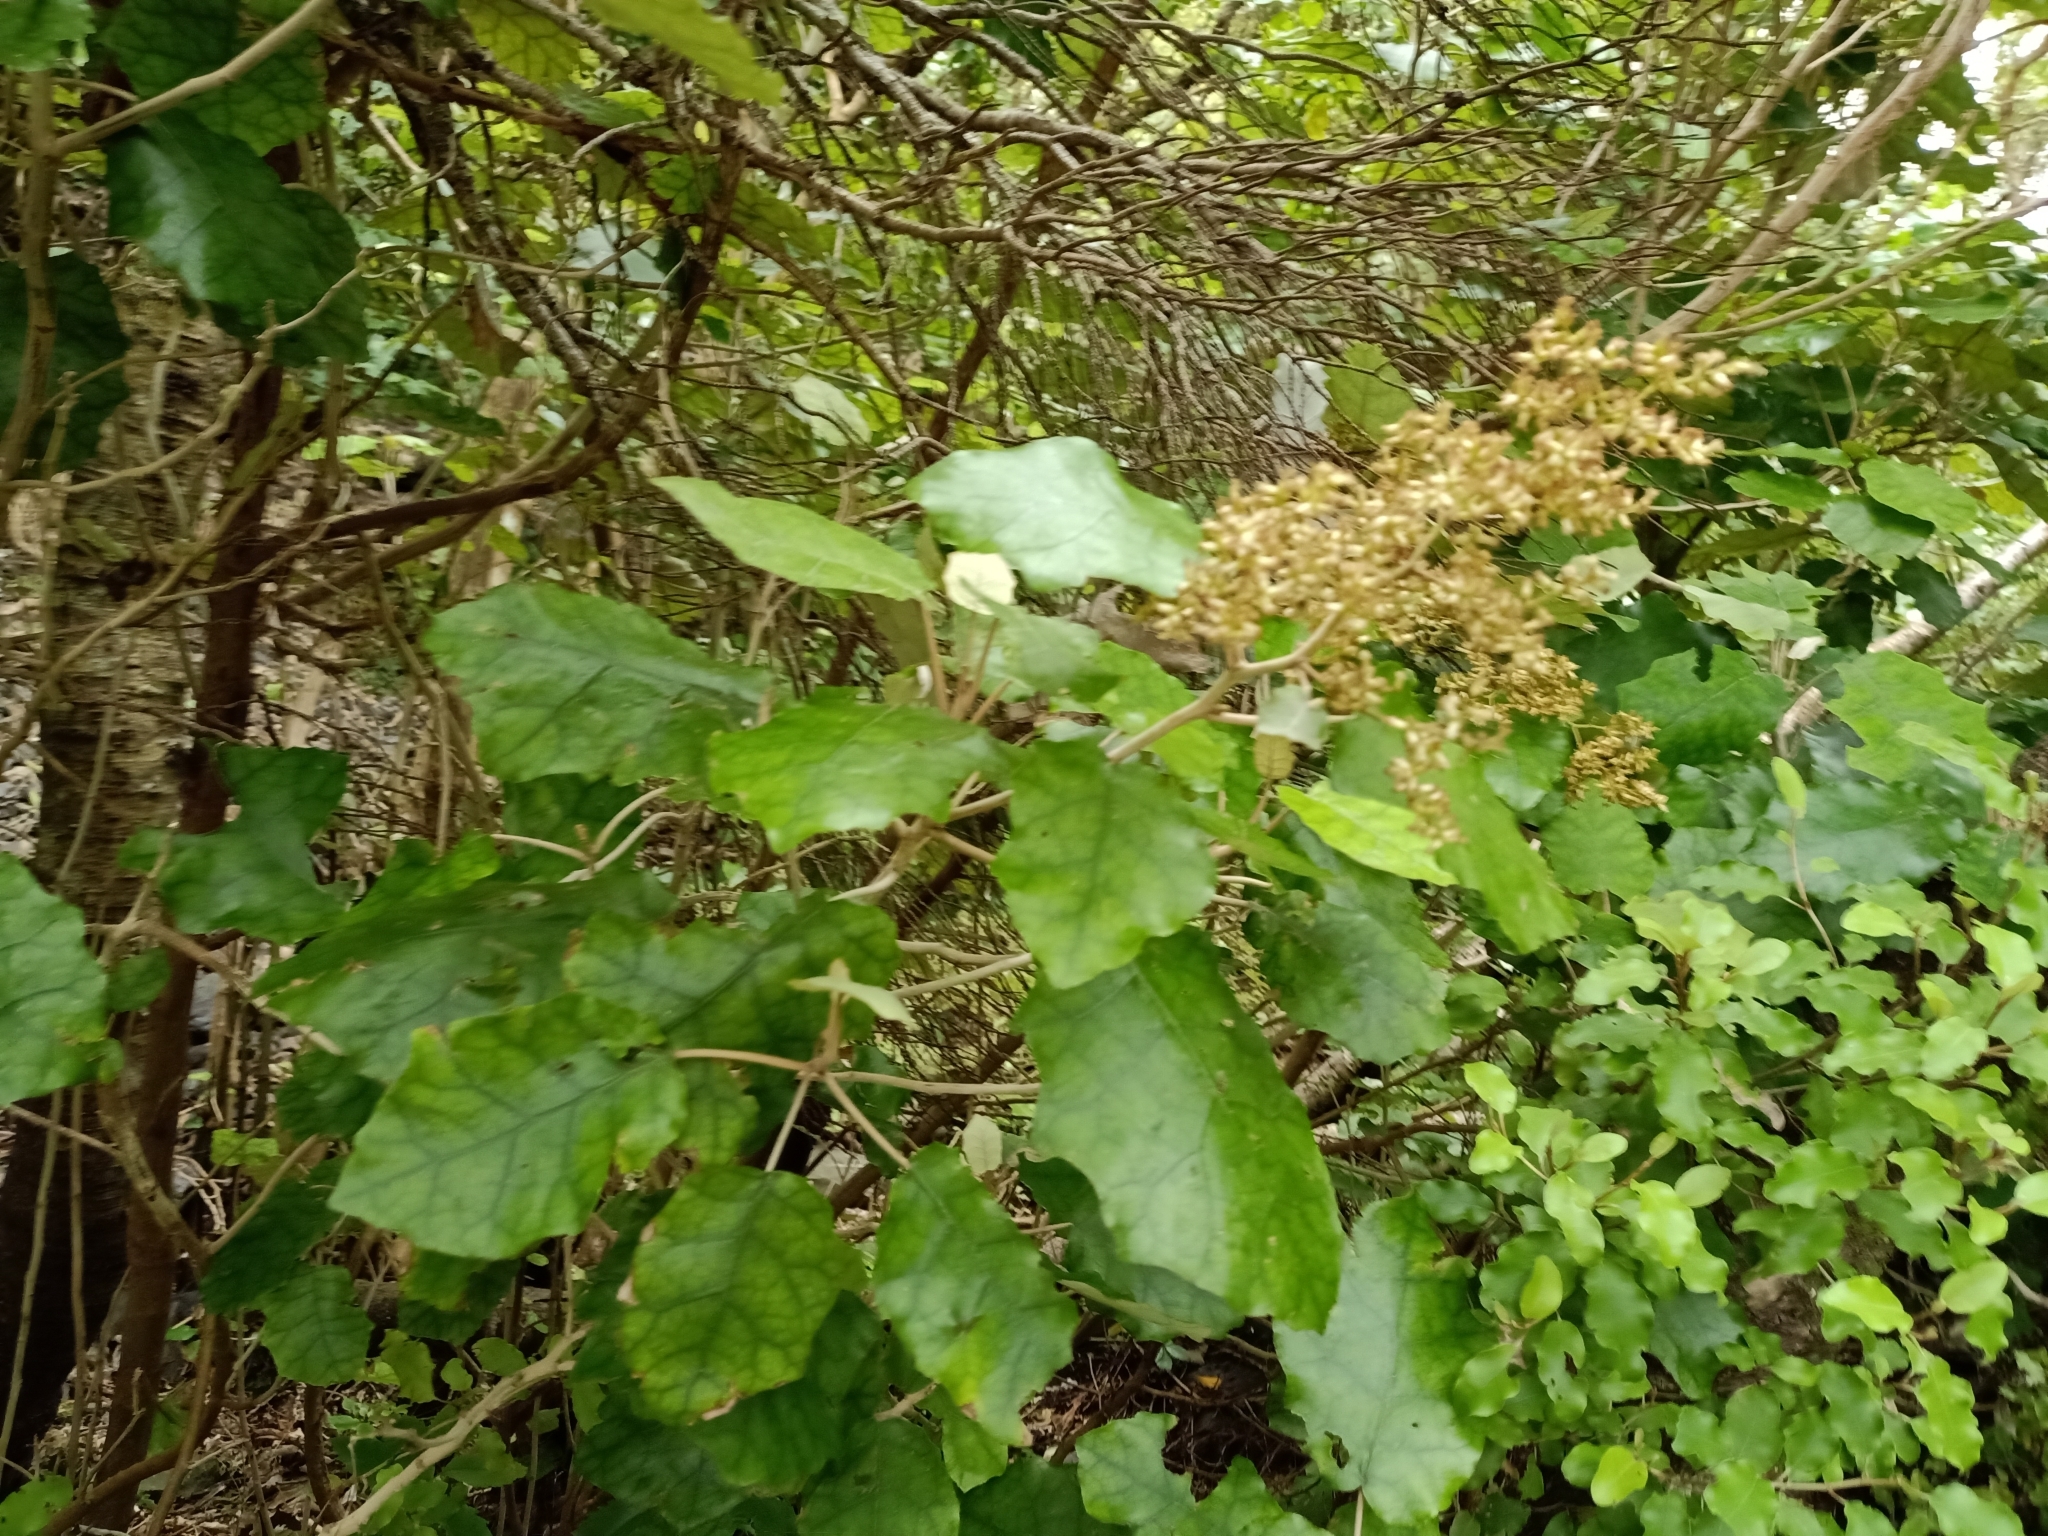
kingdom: Plantae
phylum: Tracheophyta
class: Magnoliopsida
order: Asterales
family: Asteraceae
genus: Brachyglottis
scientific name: Brachyglottis repanda
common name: Hedge ragwort
